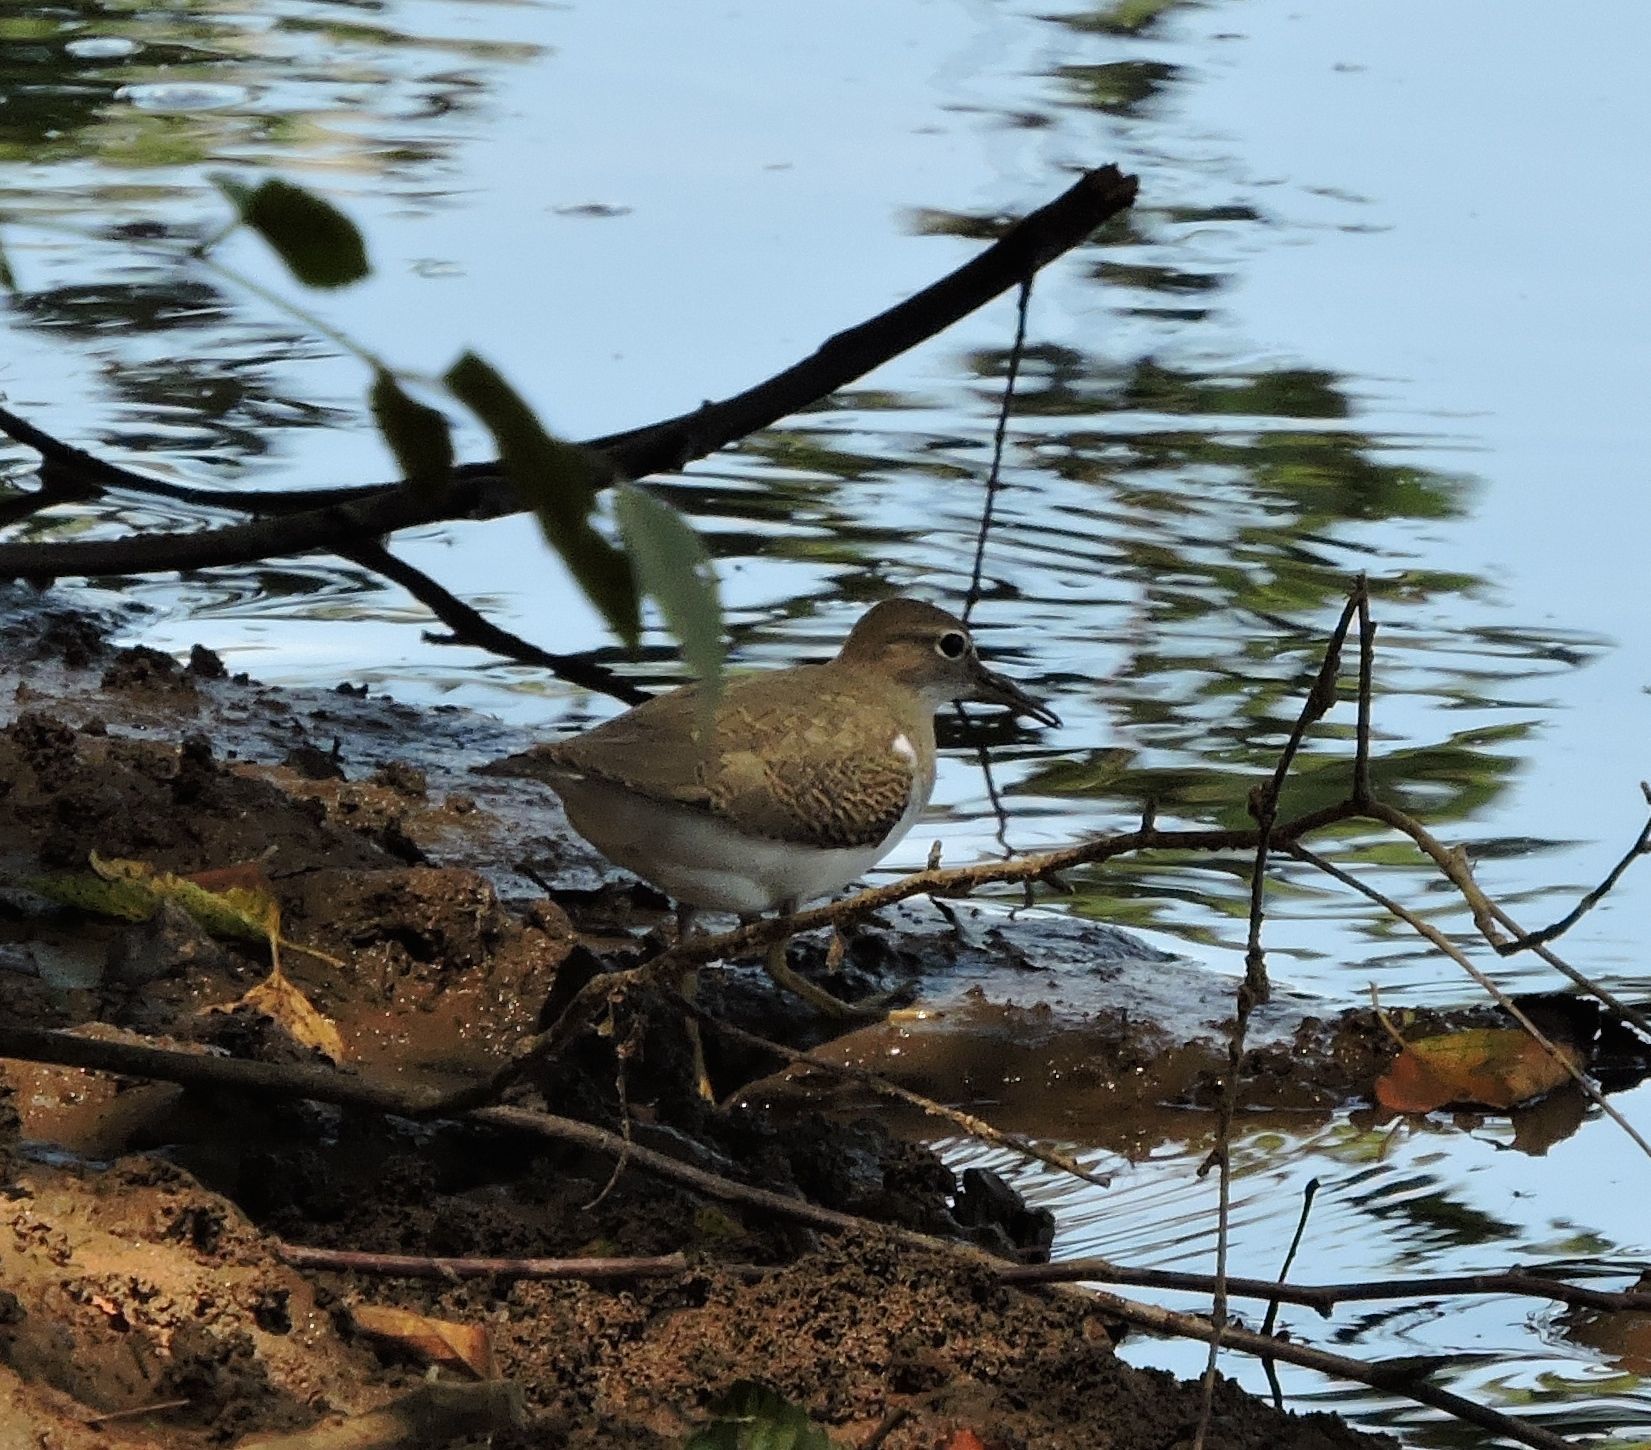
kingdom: Animalia
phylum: Chordata
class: Aves
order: Charadriiformes
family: Scolopacidae
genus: Actitis
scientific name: Actitis macularius
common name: Spotted sandpiper
